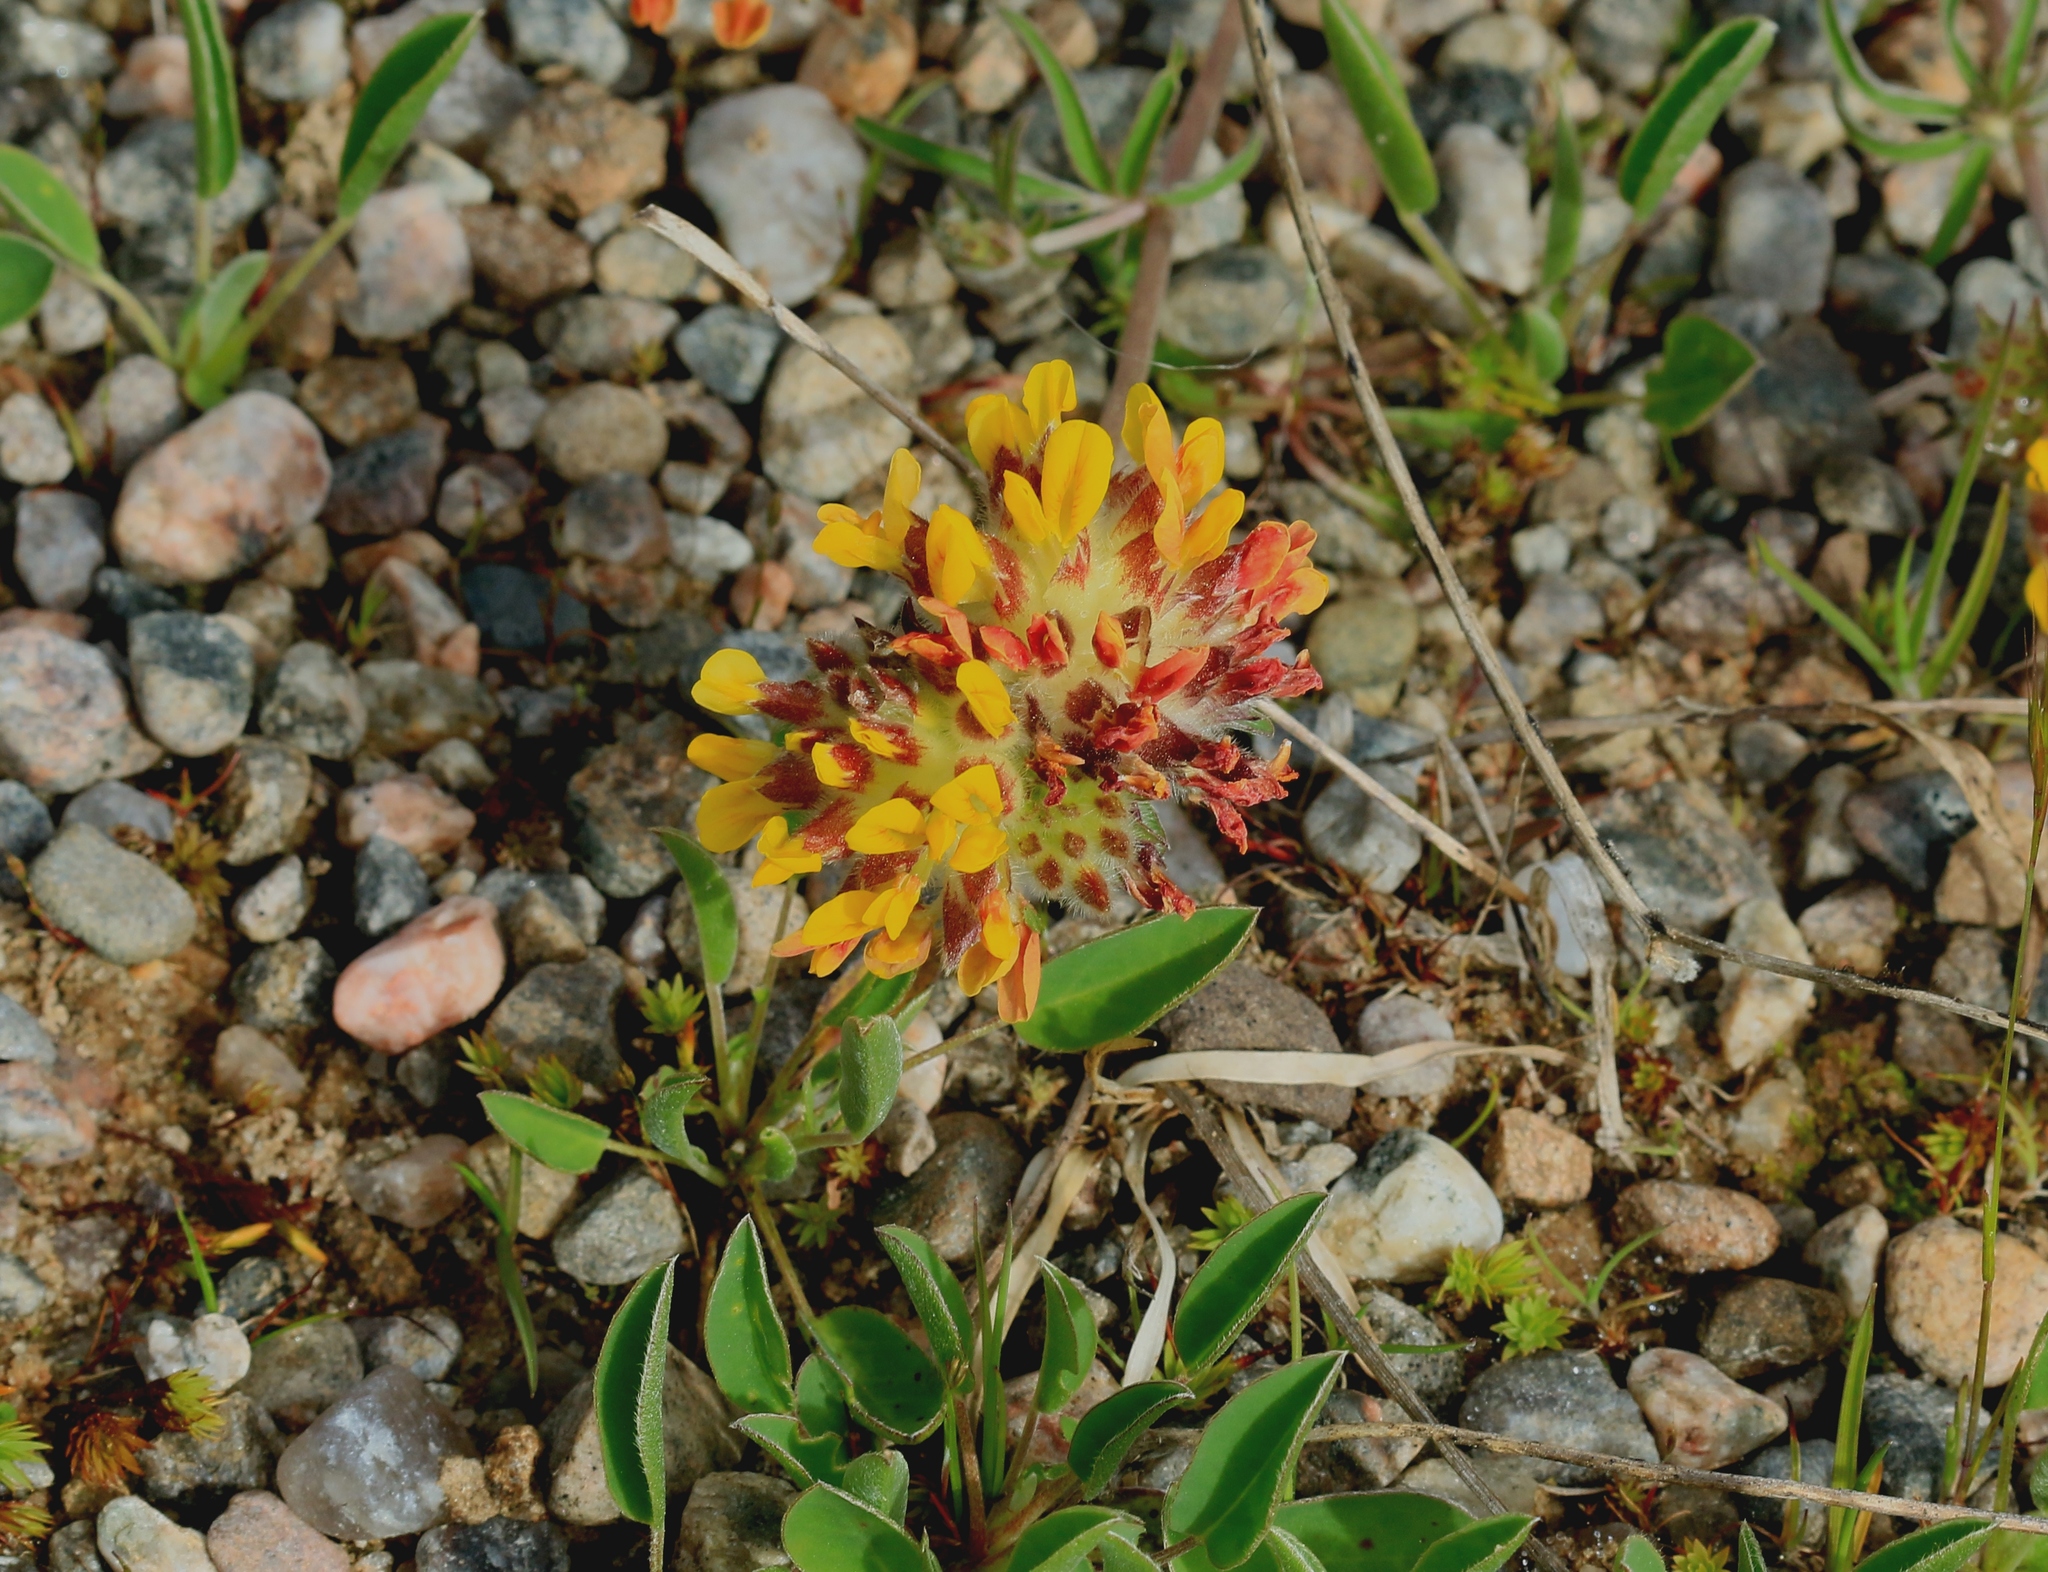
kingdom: Plantae
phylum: Tracheophyta
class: Magnoliopsida
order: Fabales
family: Fabaceae
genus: Anthyllis
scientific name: Anthyllis vulneraria
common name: Kidney vetch
